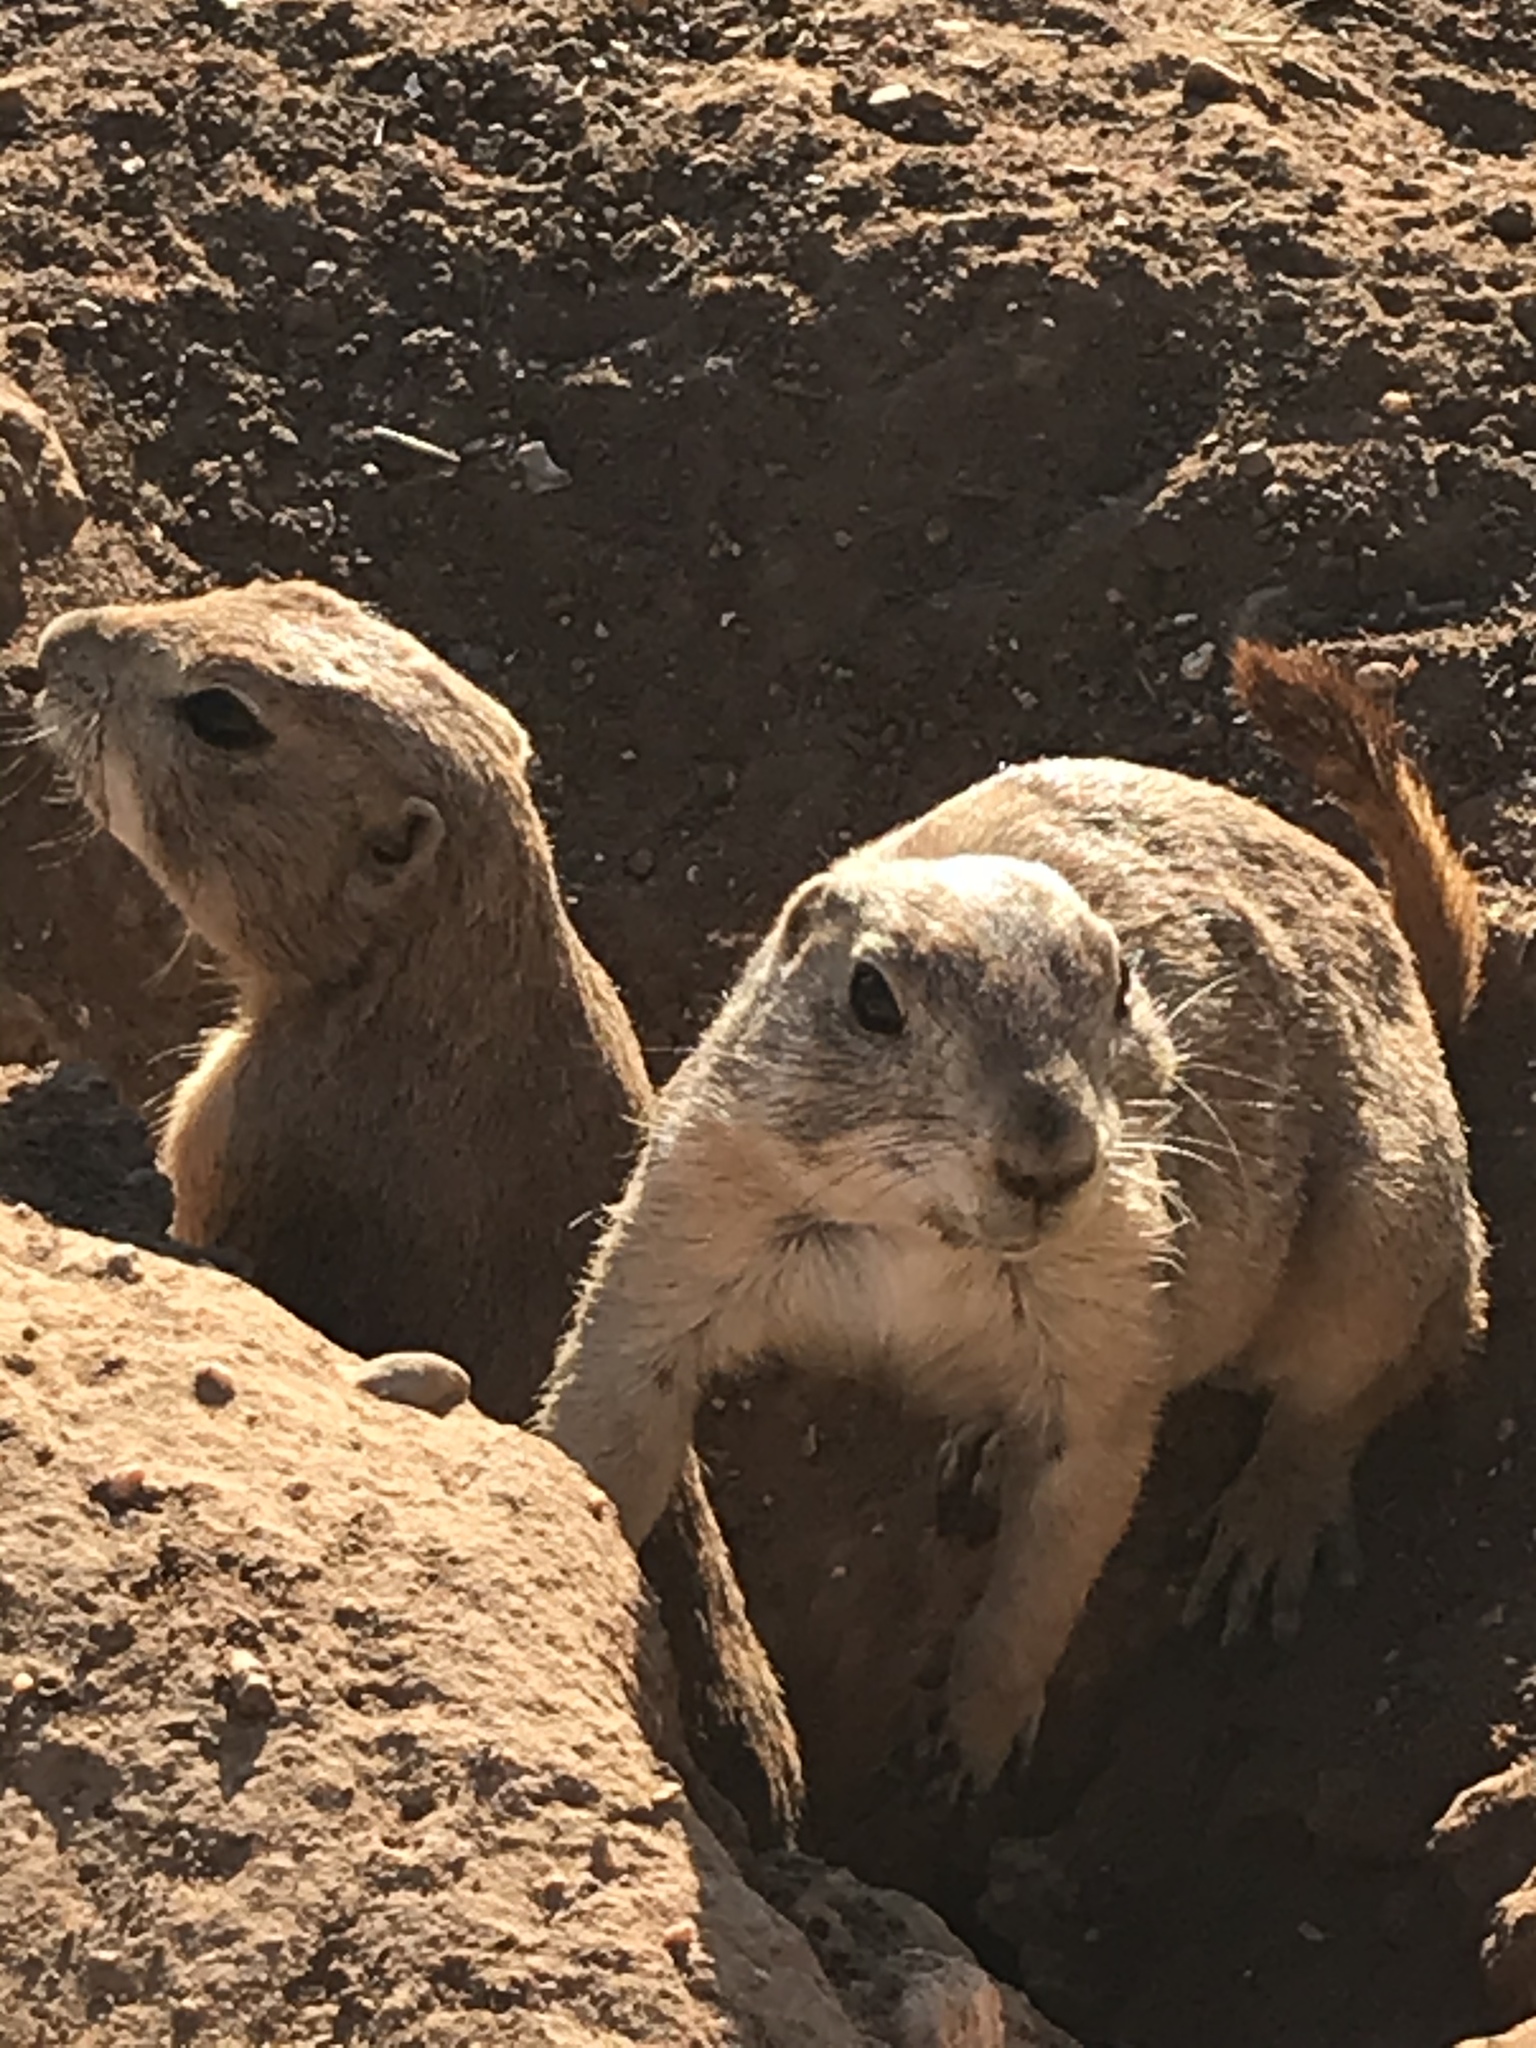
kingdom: Animalia
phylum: Chordata
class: Mammalia
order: Rodentia
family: Sciuridae
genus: Cynomys
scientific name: Cynomys ludovicianus
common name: Black-tailed prairie dog
